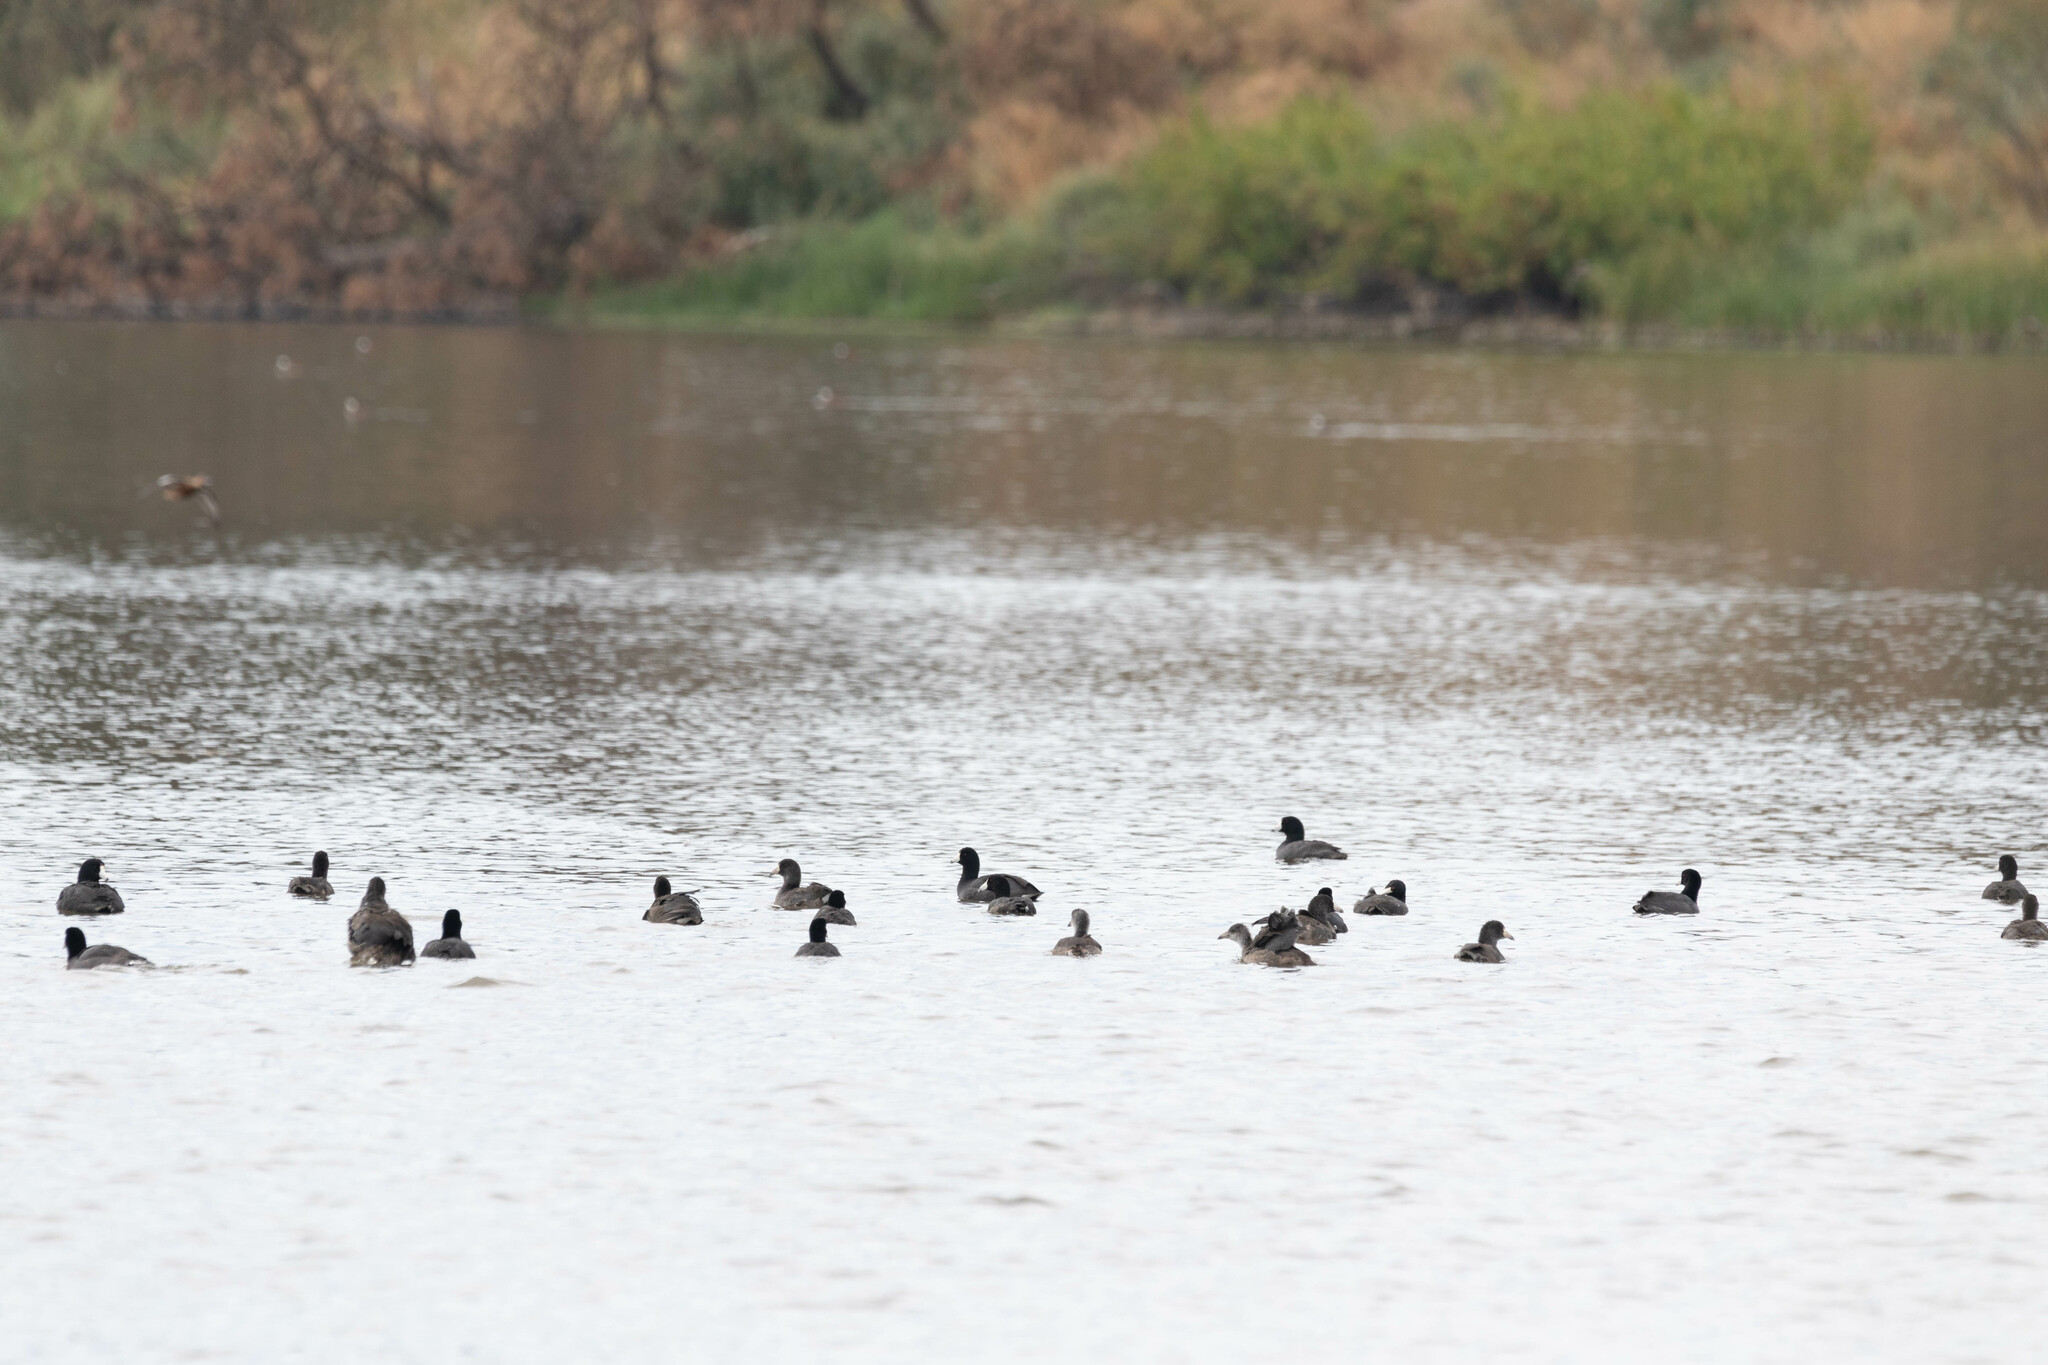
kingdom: Animalia
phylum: Chordata
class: Aves
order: Gruiformes
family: Rallidae
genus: Fulica
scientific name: Fulica americana
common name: American coot
